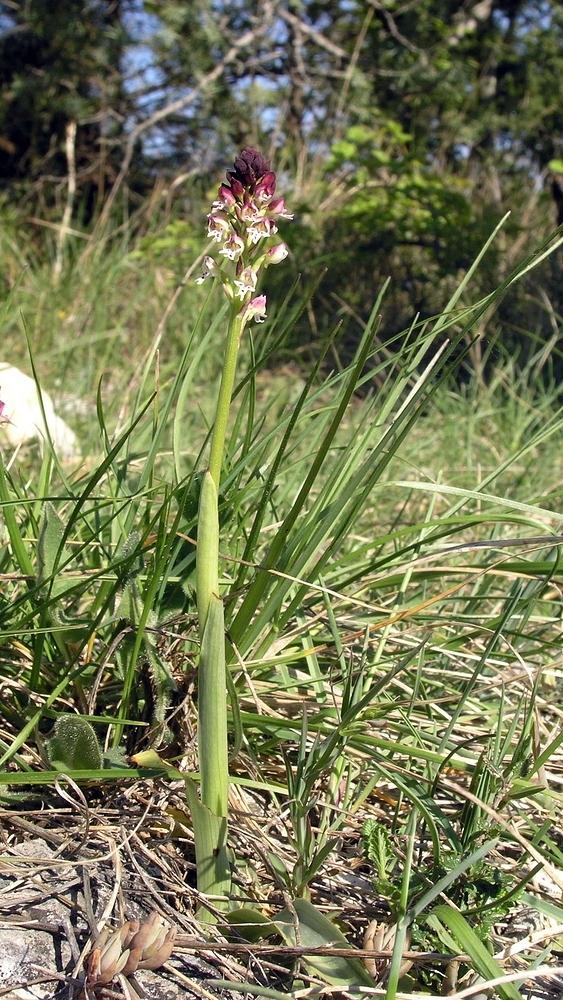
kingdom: Plantae
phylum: Tracheophyta
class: Liliopsida
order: Asparagales
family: Orchidaceae
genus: Neotinea
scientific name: Neotinea ustulata
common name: Burnt orchid
